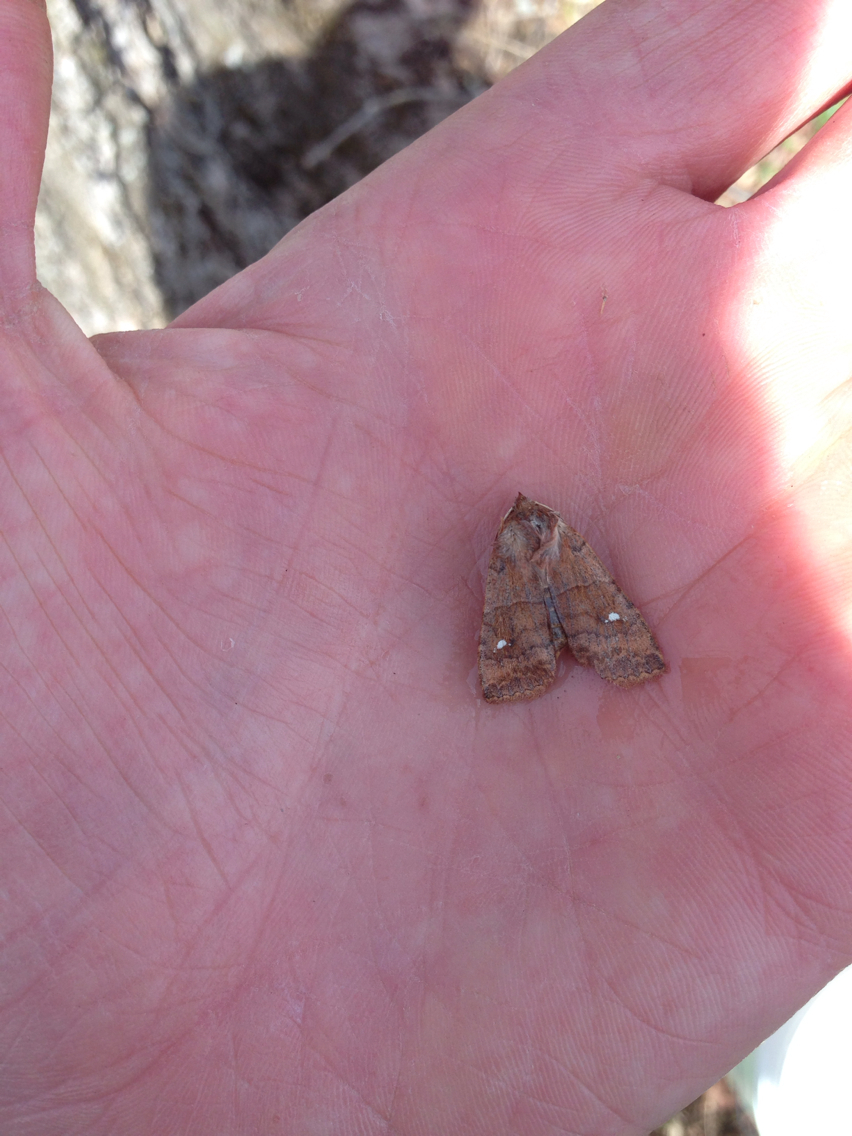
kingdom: Animalia
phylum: Arthropoda
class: Insecta
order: Lepidoptera
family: Noctuidae
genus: Eupsilia
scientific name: Eupsilia vinulenta
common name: Straight-toothed sallow
